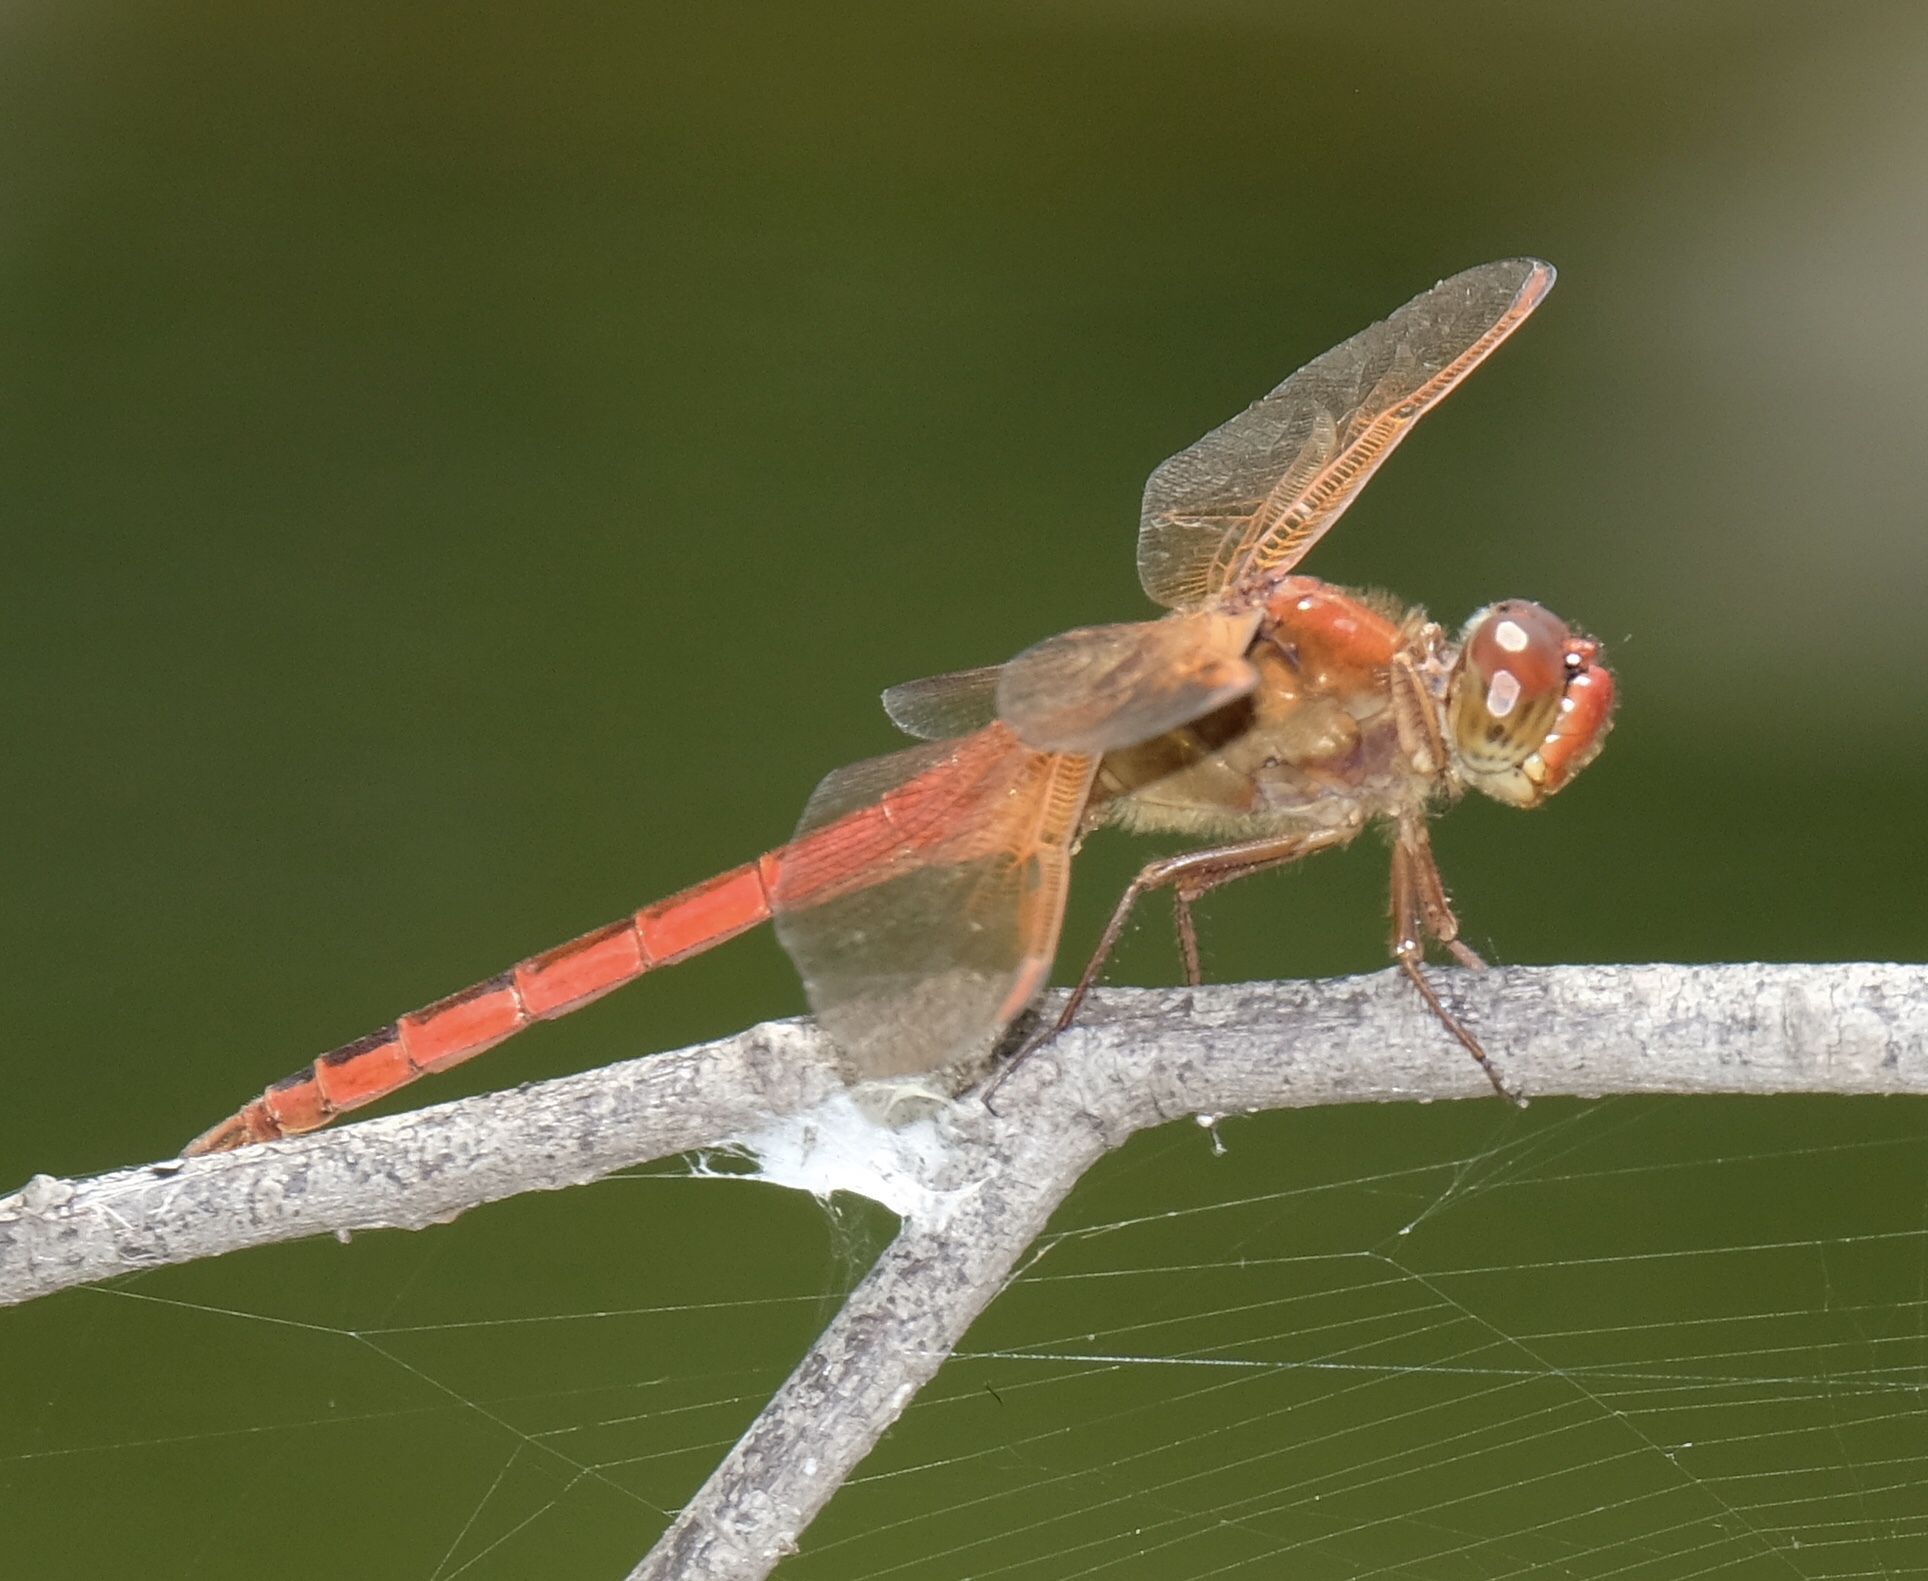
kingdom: Animalia
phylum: Arthropoda
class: Insecta
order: Odonata
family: Libellulidae
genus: Libellula
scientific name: Libellula needhami
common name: Needham's skimmer
